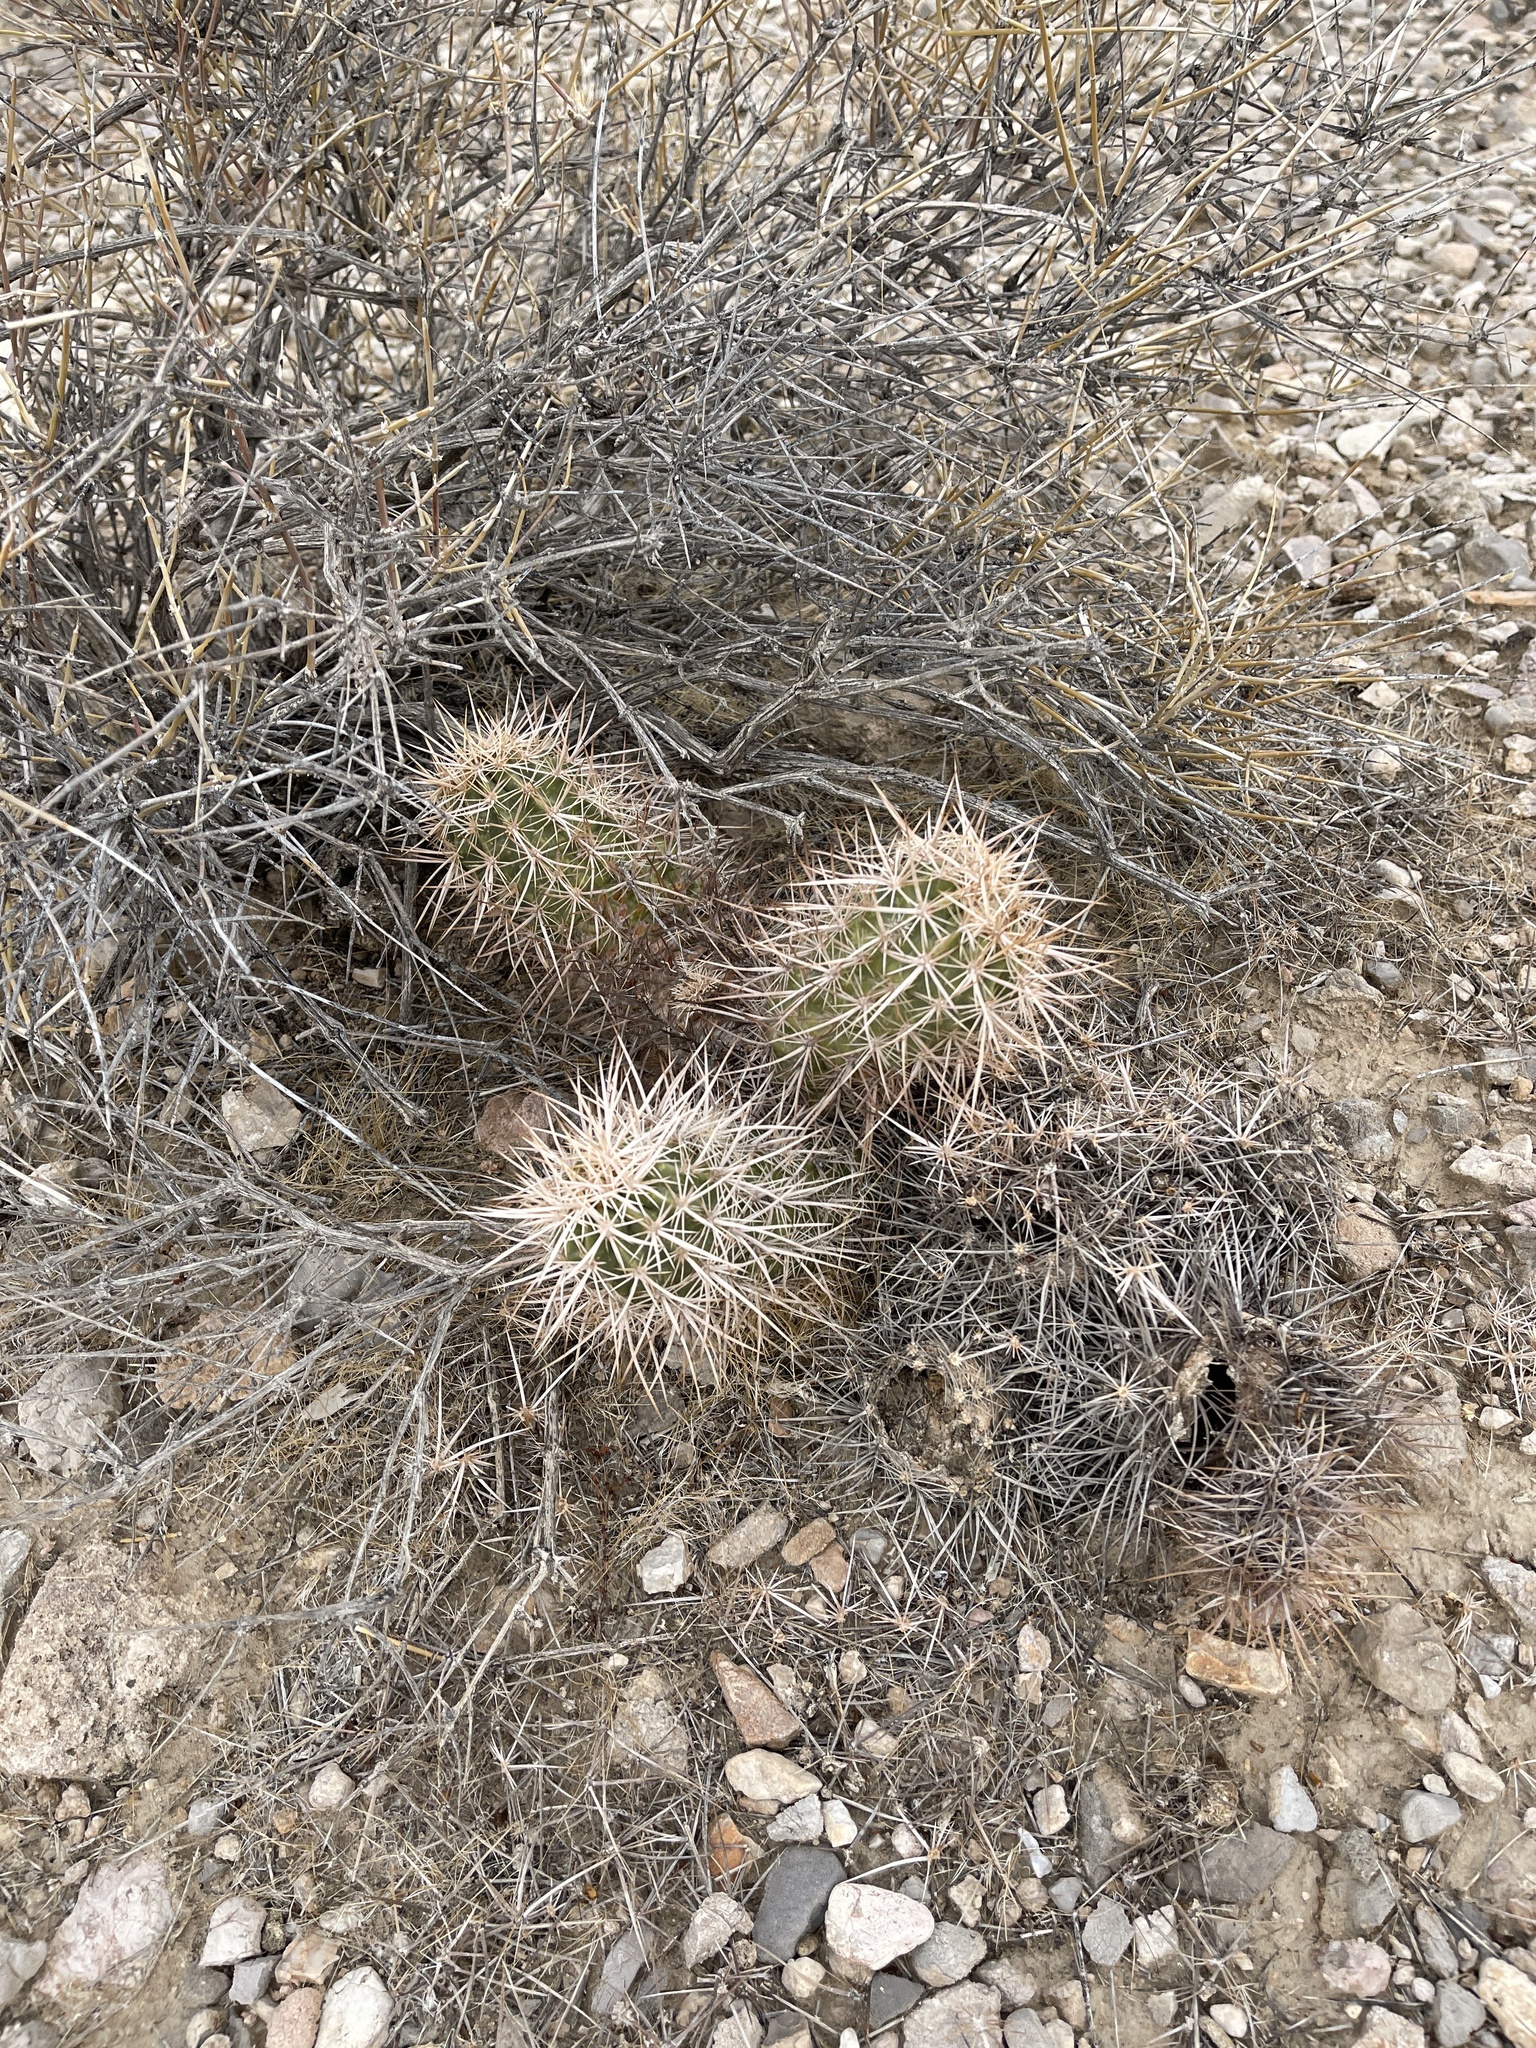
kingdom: Plantae
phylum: Tracheophyta
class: Magnoliopsida
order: Caryophyllales
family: Cactaceae
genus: Echinocereus
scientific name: Echinocereus engelmannii
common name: Engelmann's hedgehog cactus
